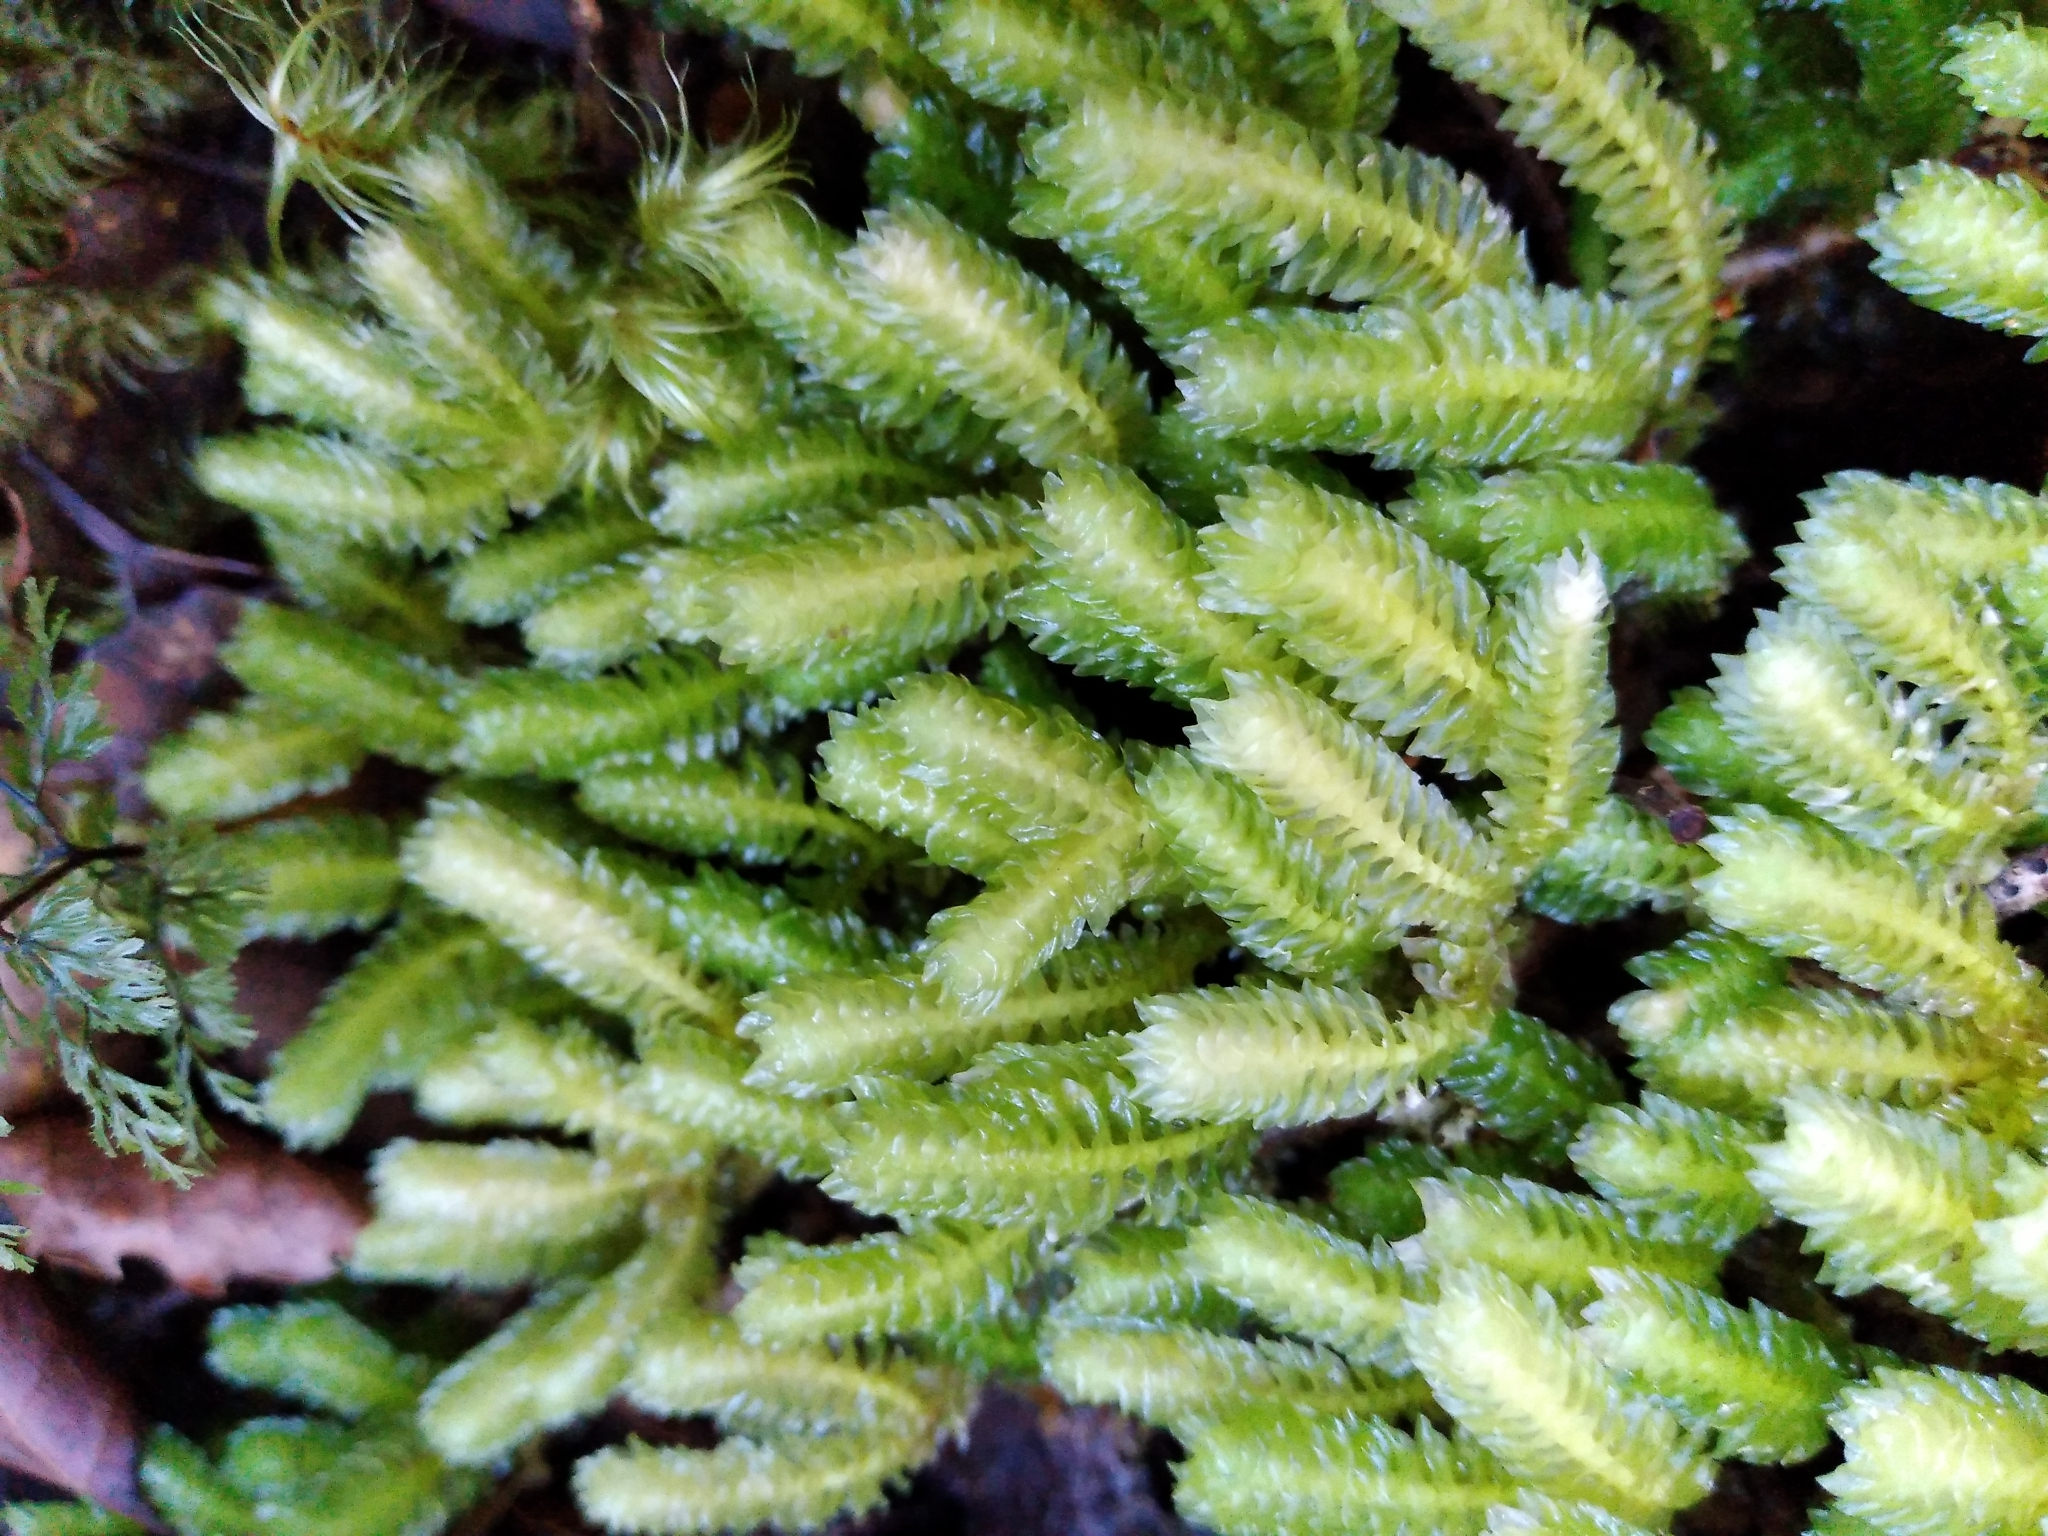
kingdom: Plantae
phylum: Marchantiophyta
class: Jungermanniopsida
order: Jungermanniales
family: Schistochilaceae
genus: Schistochila
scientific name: Schistochila nobilis
